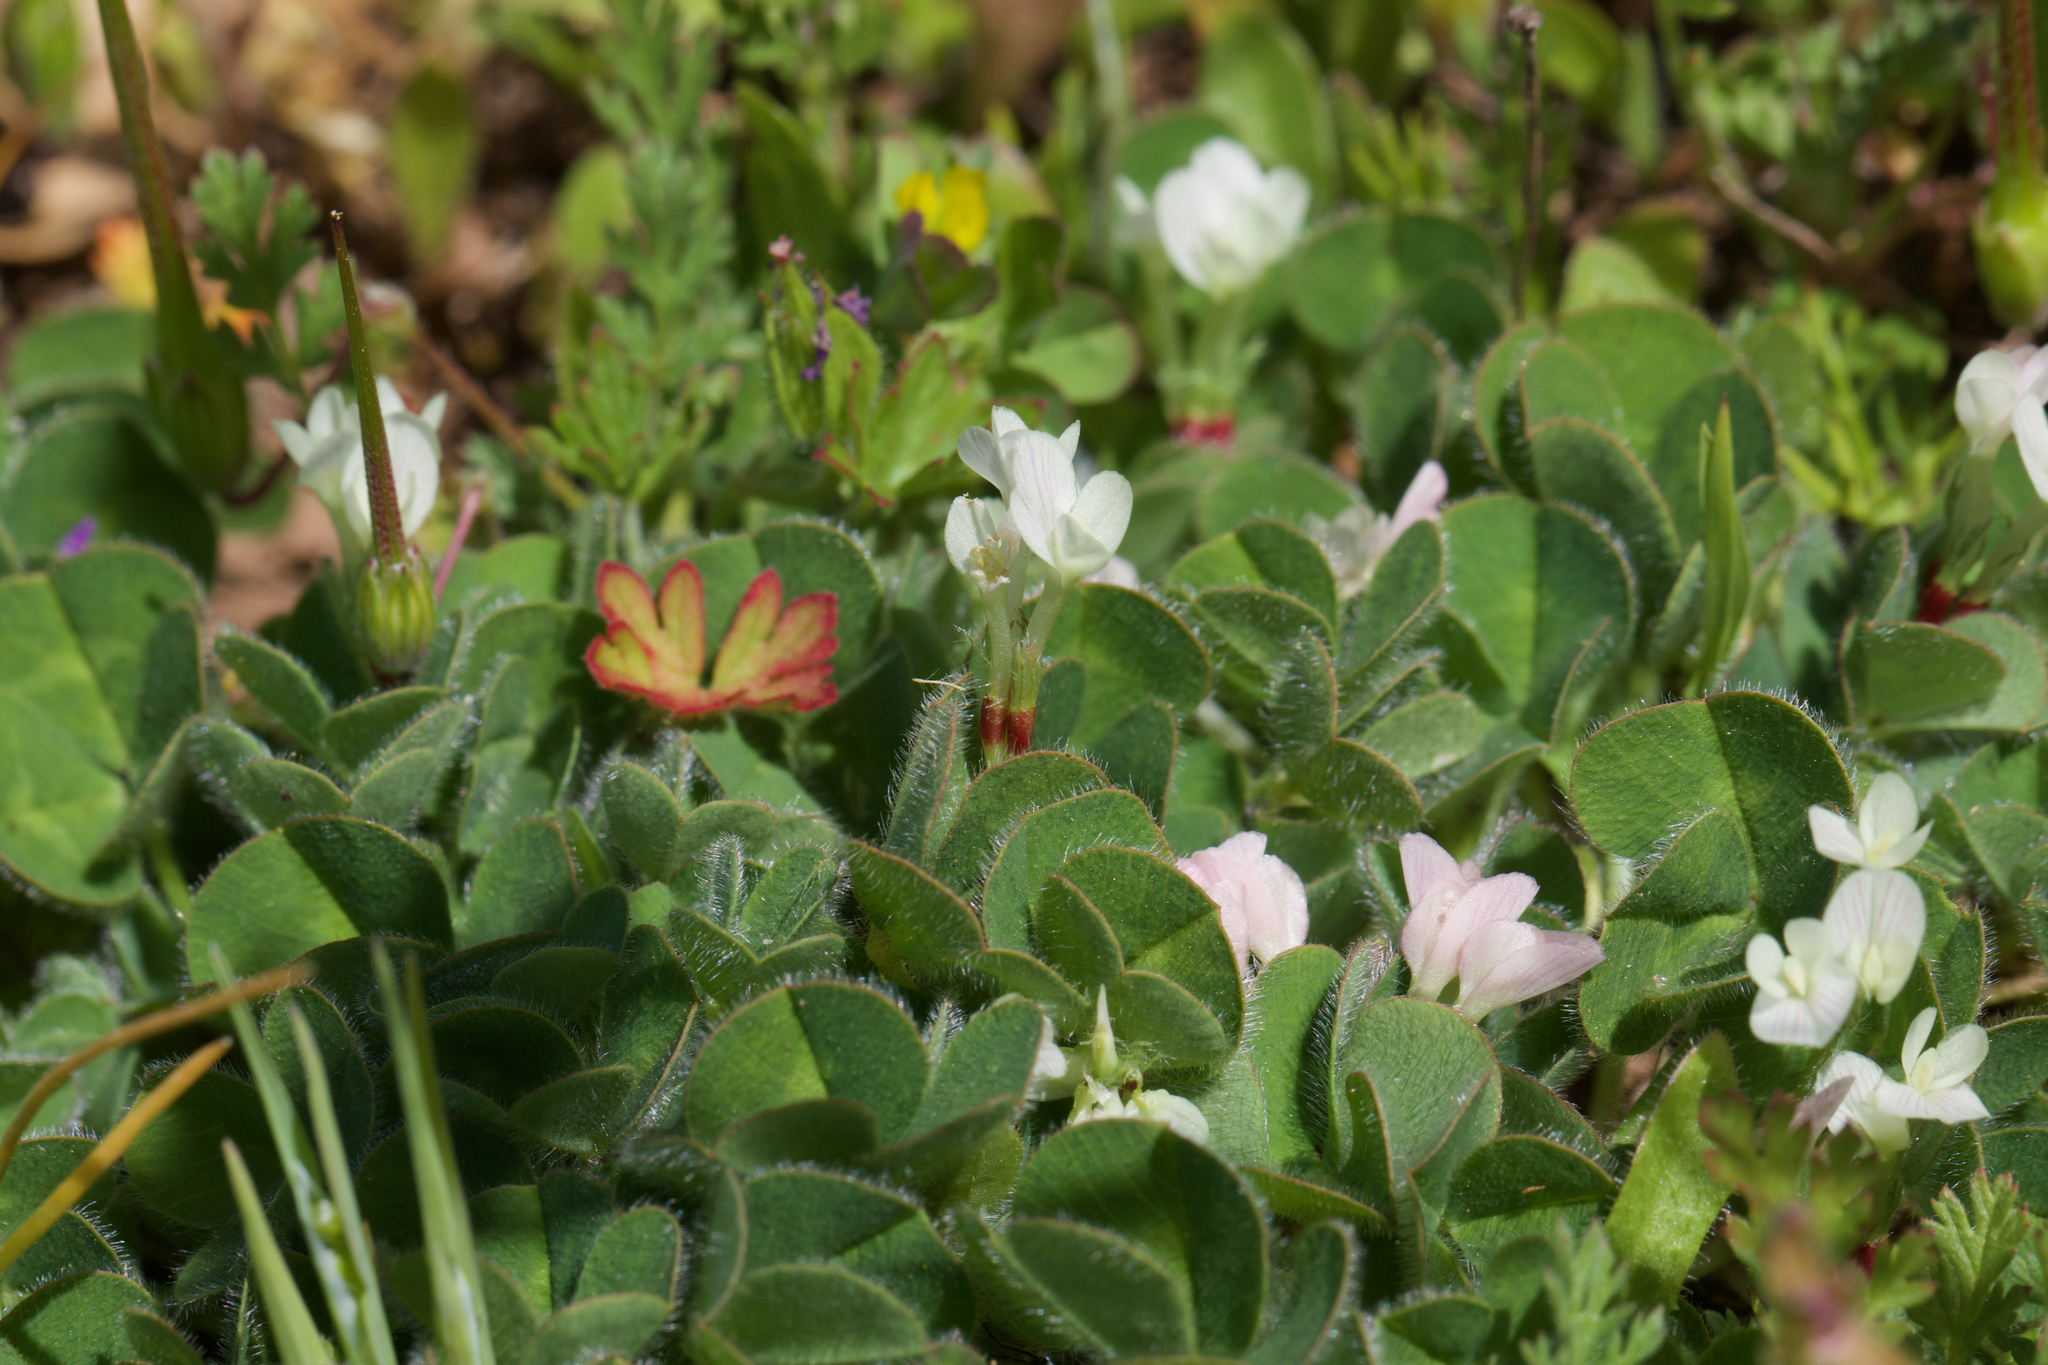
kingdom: Plantae
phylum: Tracheophyta
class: Magnoliopsida
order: Fabales
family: Fabaceae
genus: Trifolium
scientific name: Trifolium subterraneum
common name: Subterranean clover
